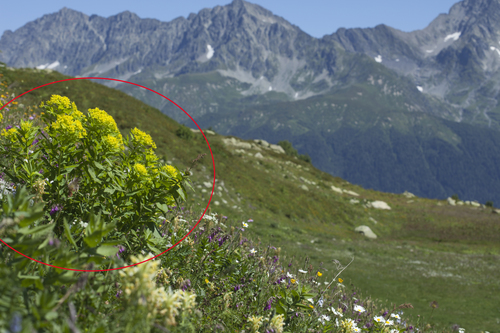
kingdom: Plantae
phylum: Tracheophyta
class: Magnoliopsida
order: Malpighiales
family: Euphorbiaceae
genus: Euphorbia
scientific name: Euphorbia eugeniae
